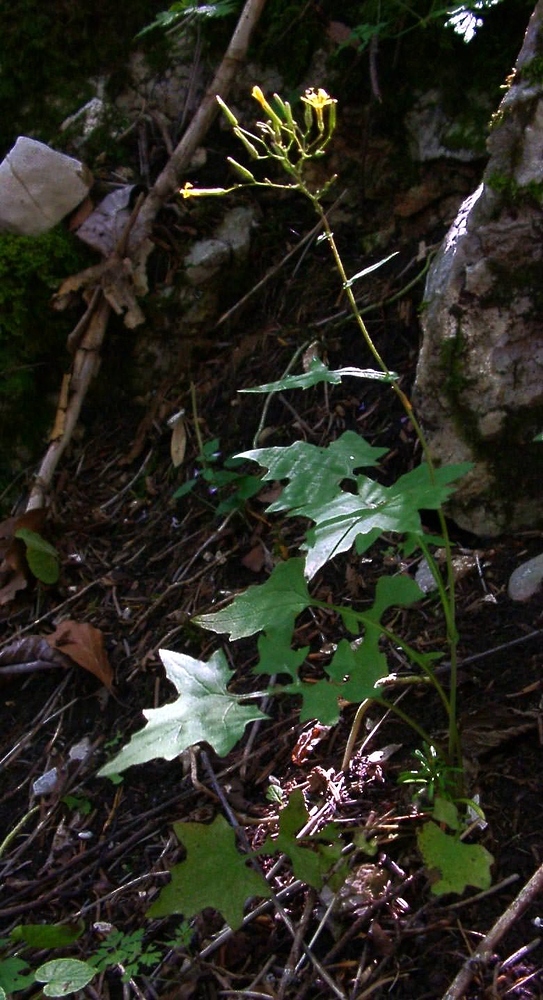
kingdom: Plantae
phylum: Tracheophyta
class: Magnoliopsida
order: Asterales
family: Asteraceae
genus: Mycelis
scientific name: Mycelis muralis
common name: Wall lettuce
